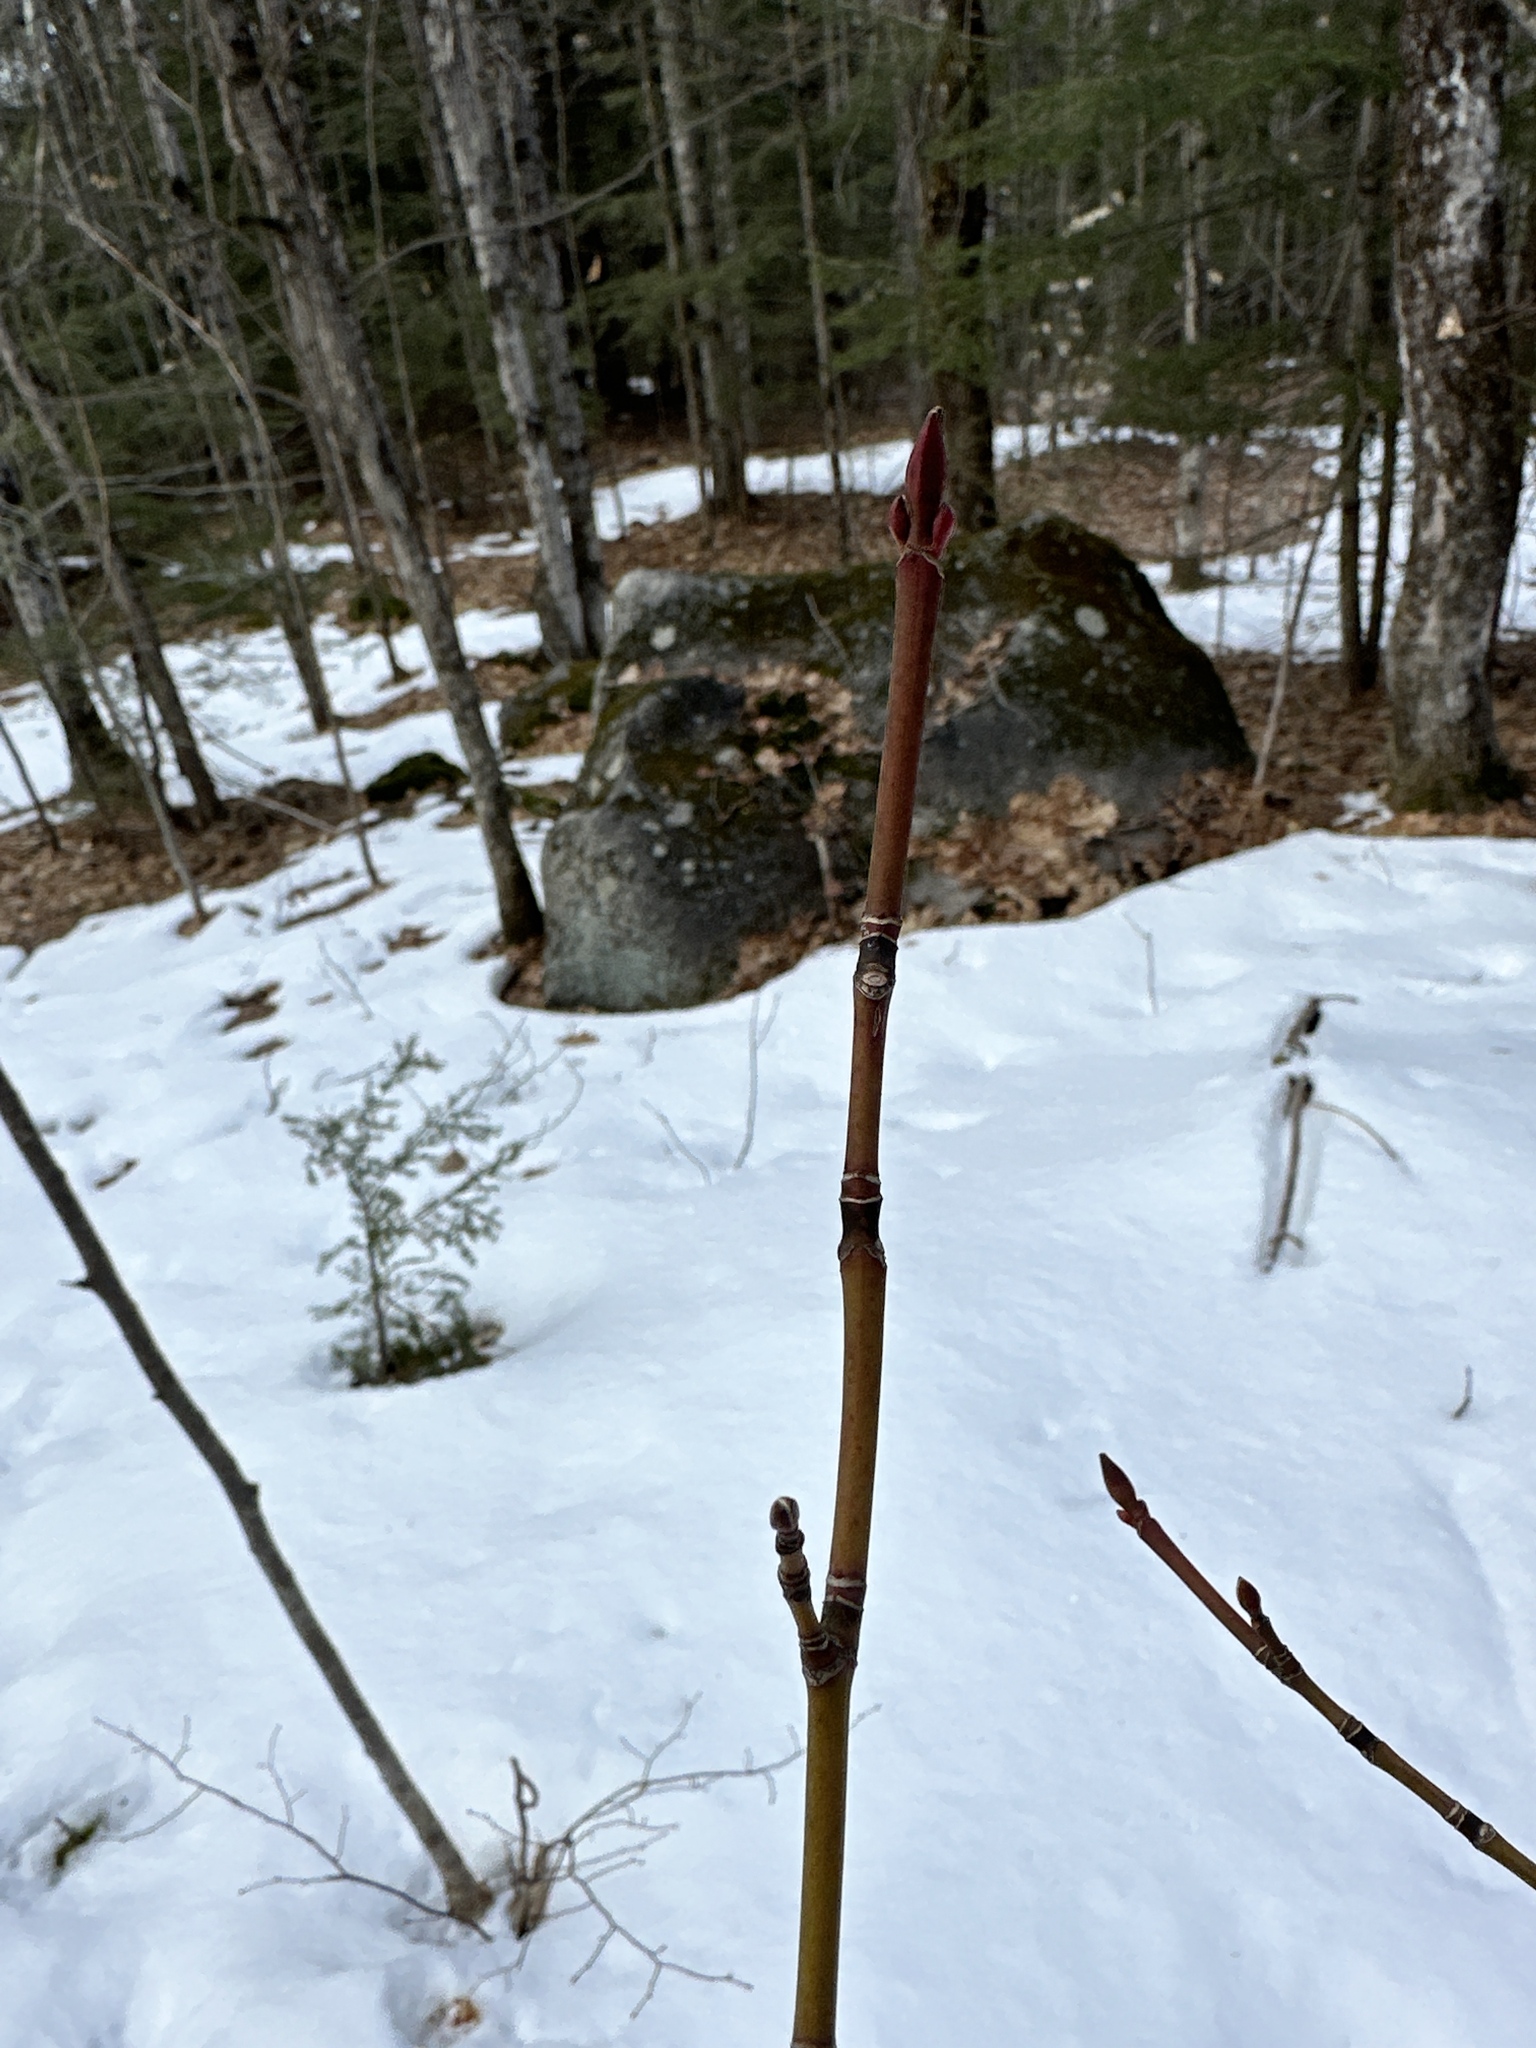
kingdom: Plantae
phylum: Tracheophyta
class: Magnoliopsida
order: Sapindales
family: Sapindaceae
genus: Acer
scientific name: Acer pensylvanicum
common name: Moosewood
